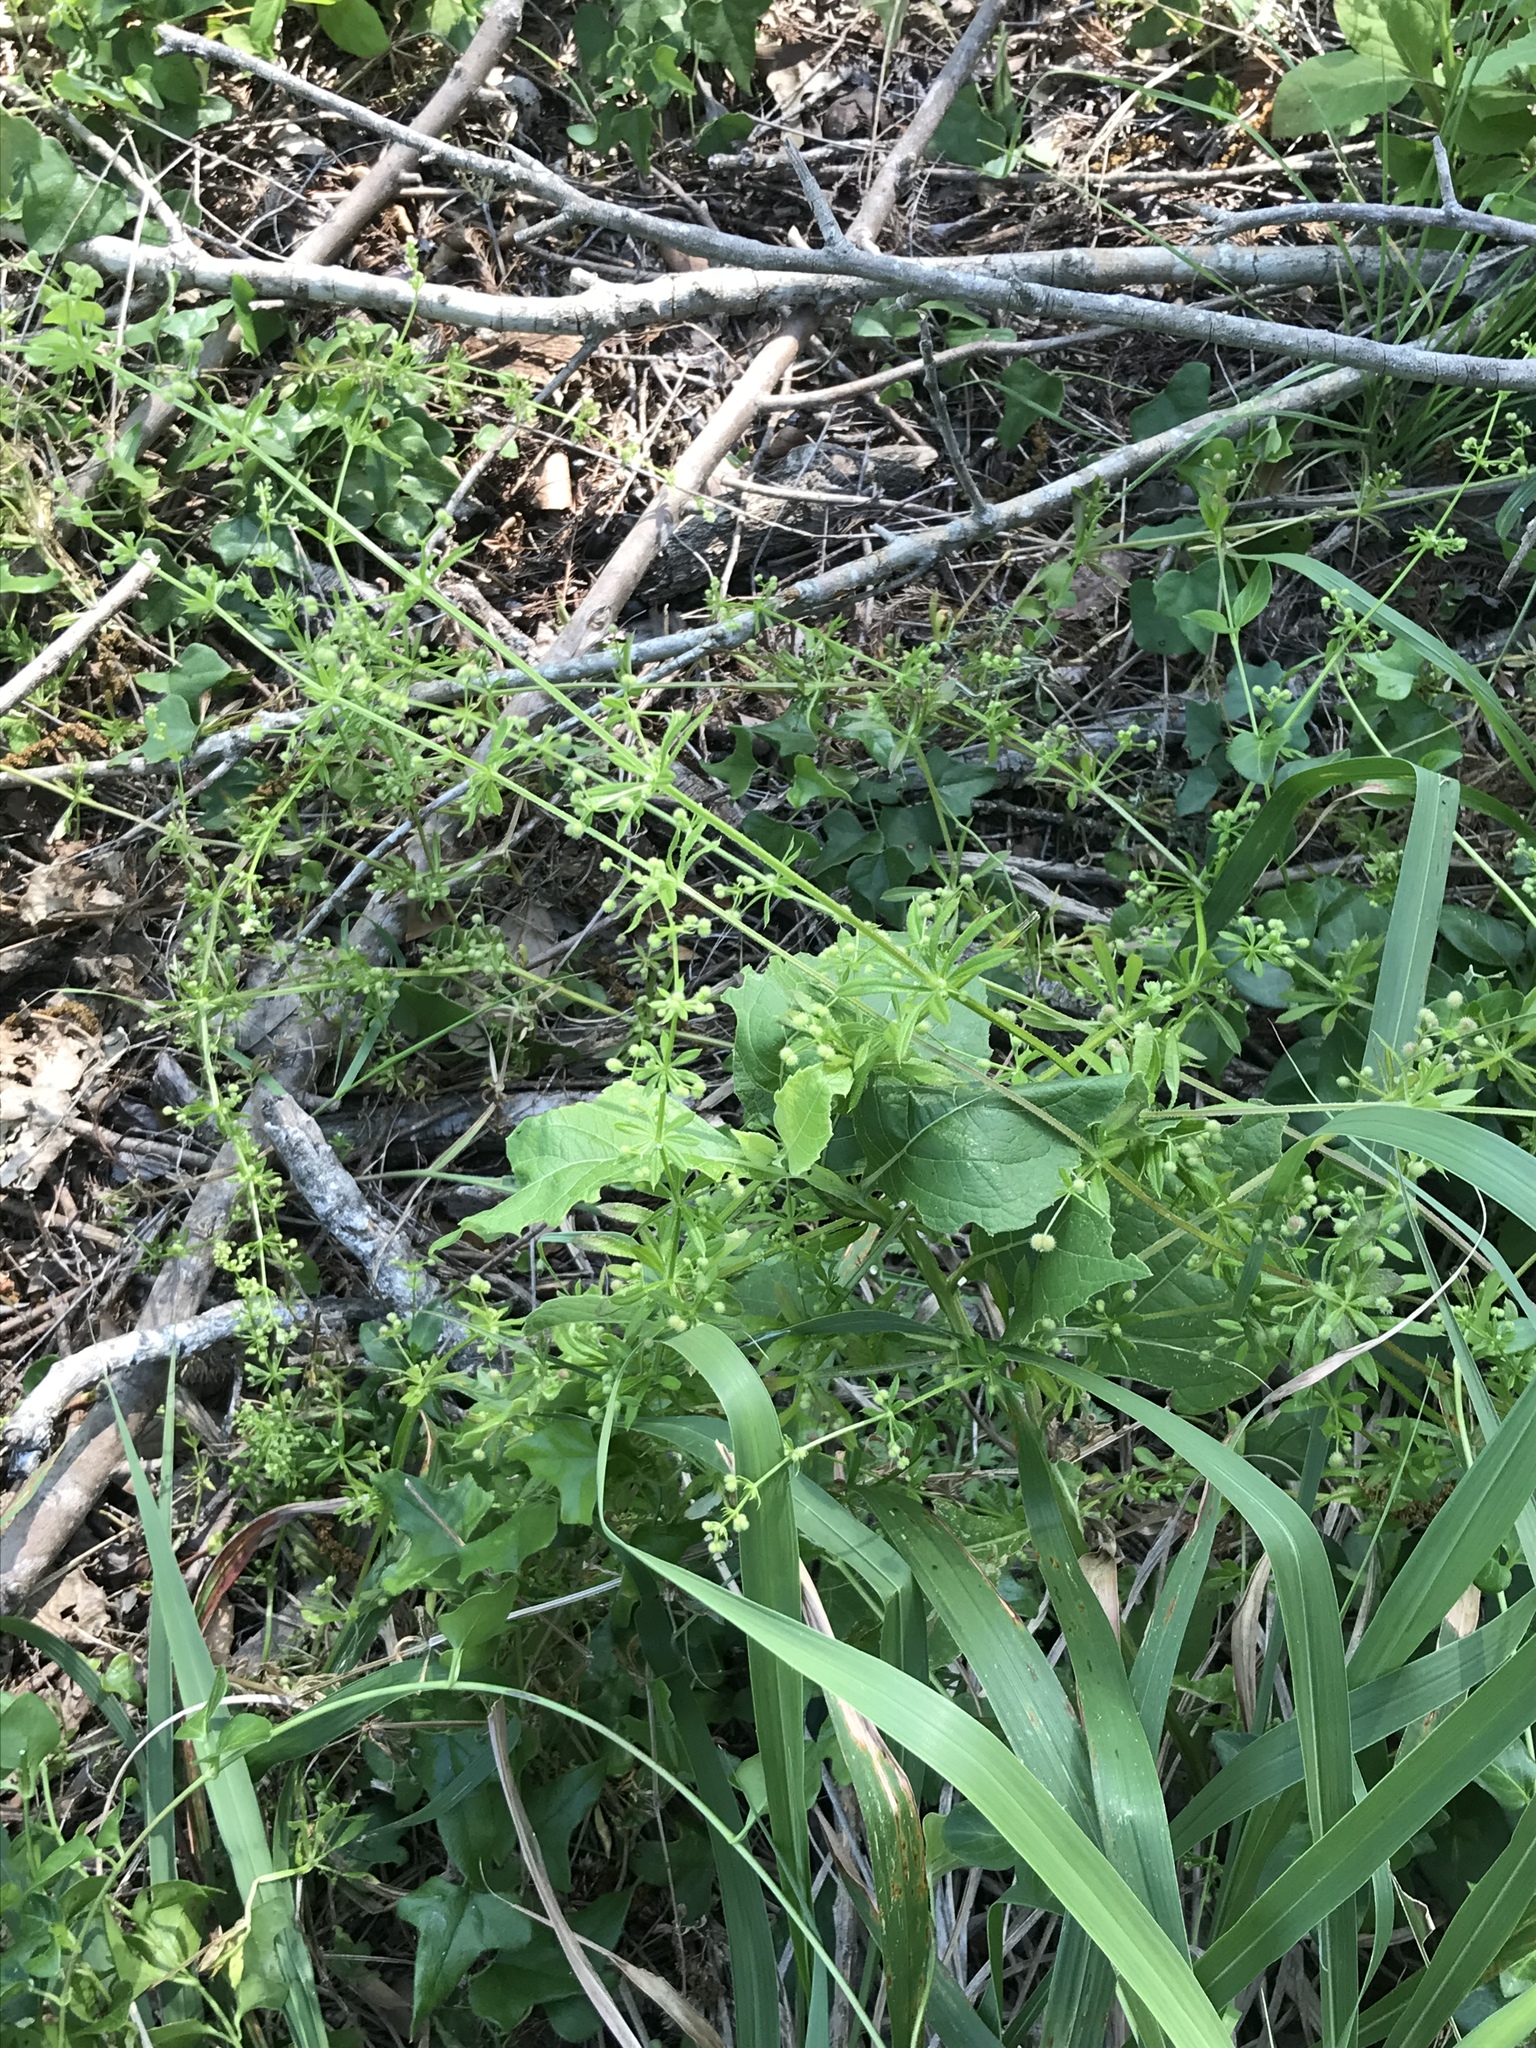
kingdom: Plantae
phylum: Tracheophyta
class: Magnoliopsida
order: Gentianales
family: Rubiaceae
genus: Galium
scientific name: Galium aparine
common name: Cleavers
